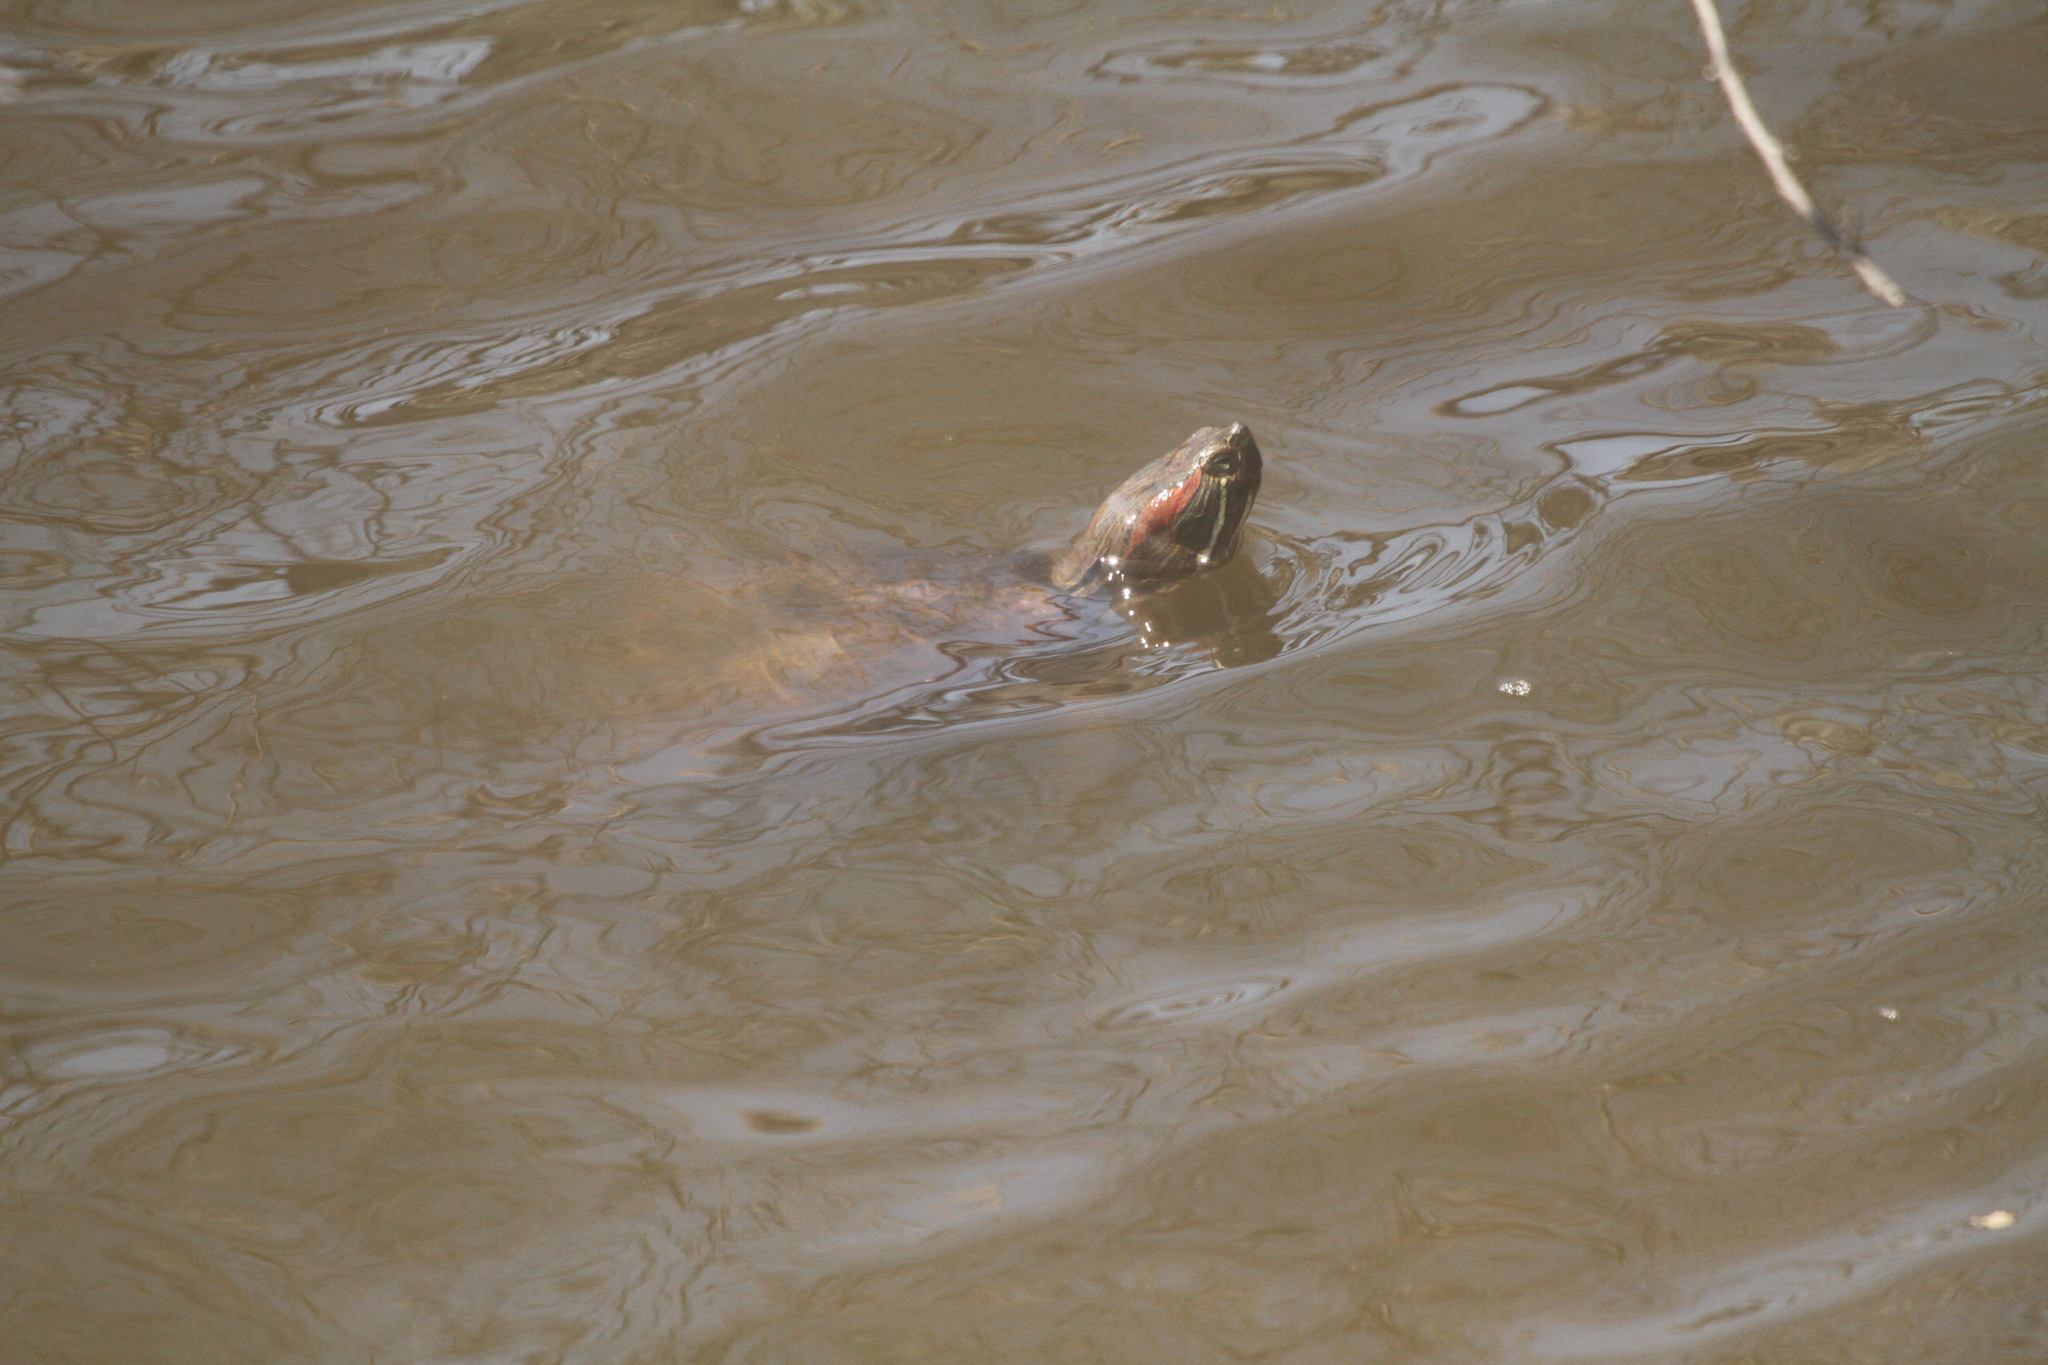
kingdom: Animalia
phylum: Chordata
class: Testudines
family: Emydidae
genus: Trachemys
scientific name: Trachemys scripta
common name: Slider
